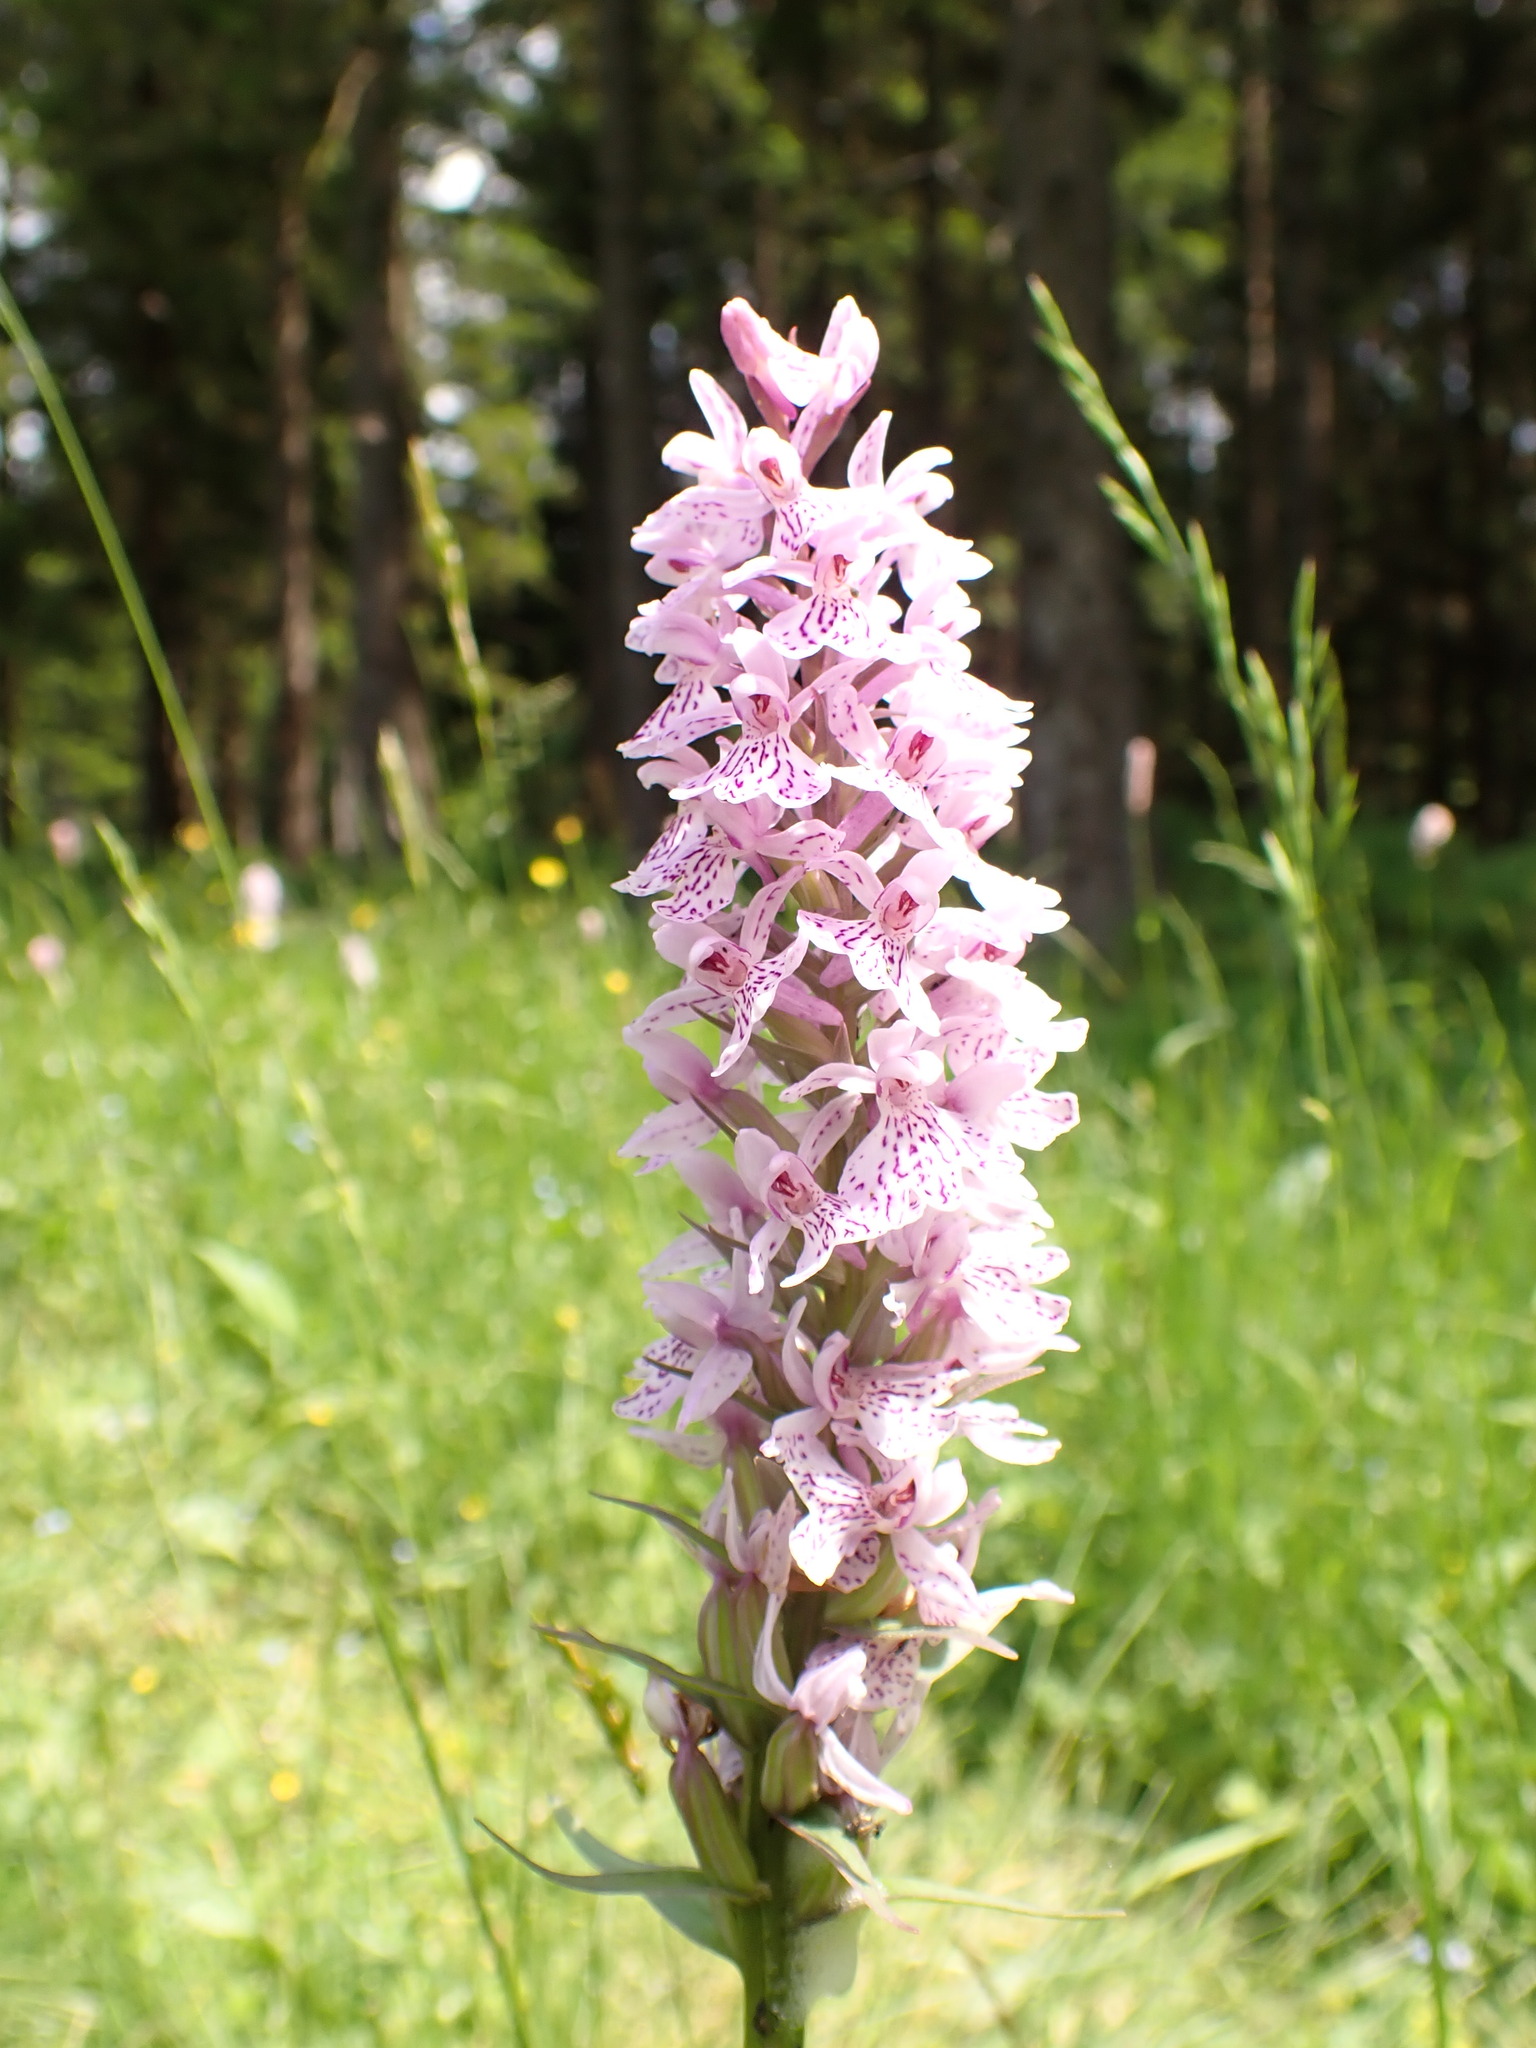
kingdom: Plantae
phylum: Tracheophyta
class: Liliopsida
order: Asparagales
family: Orchidaceae
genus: Dactylorhiza
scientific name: Dactylorhiza maculata
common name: Heath spotted-orchid
